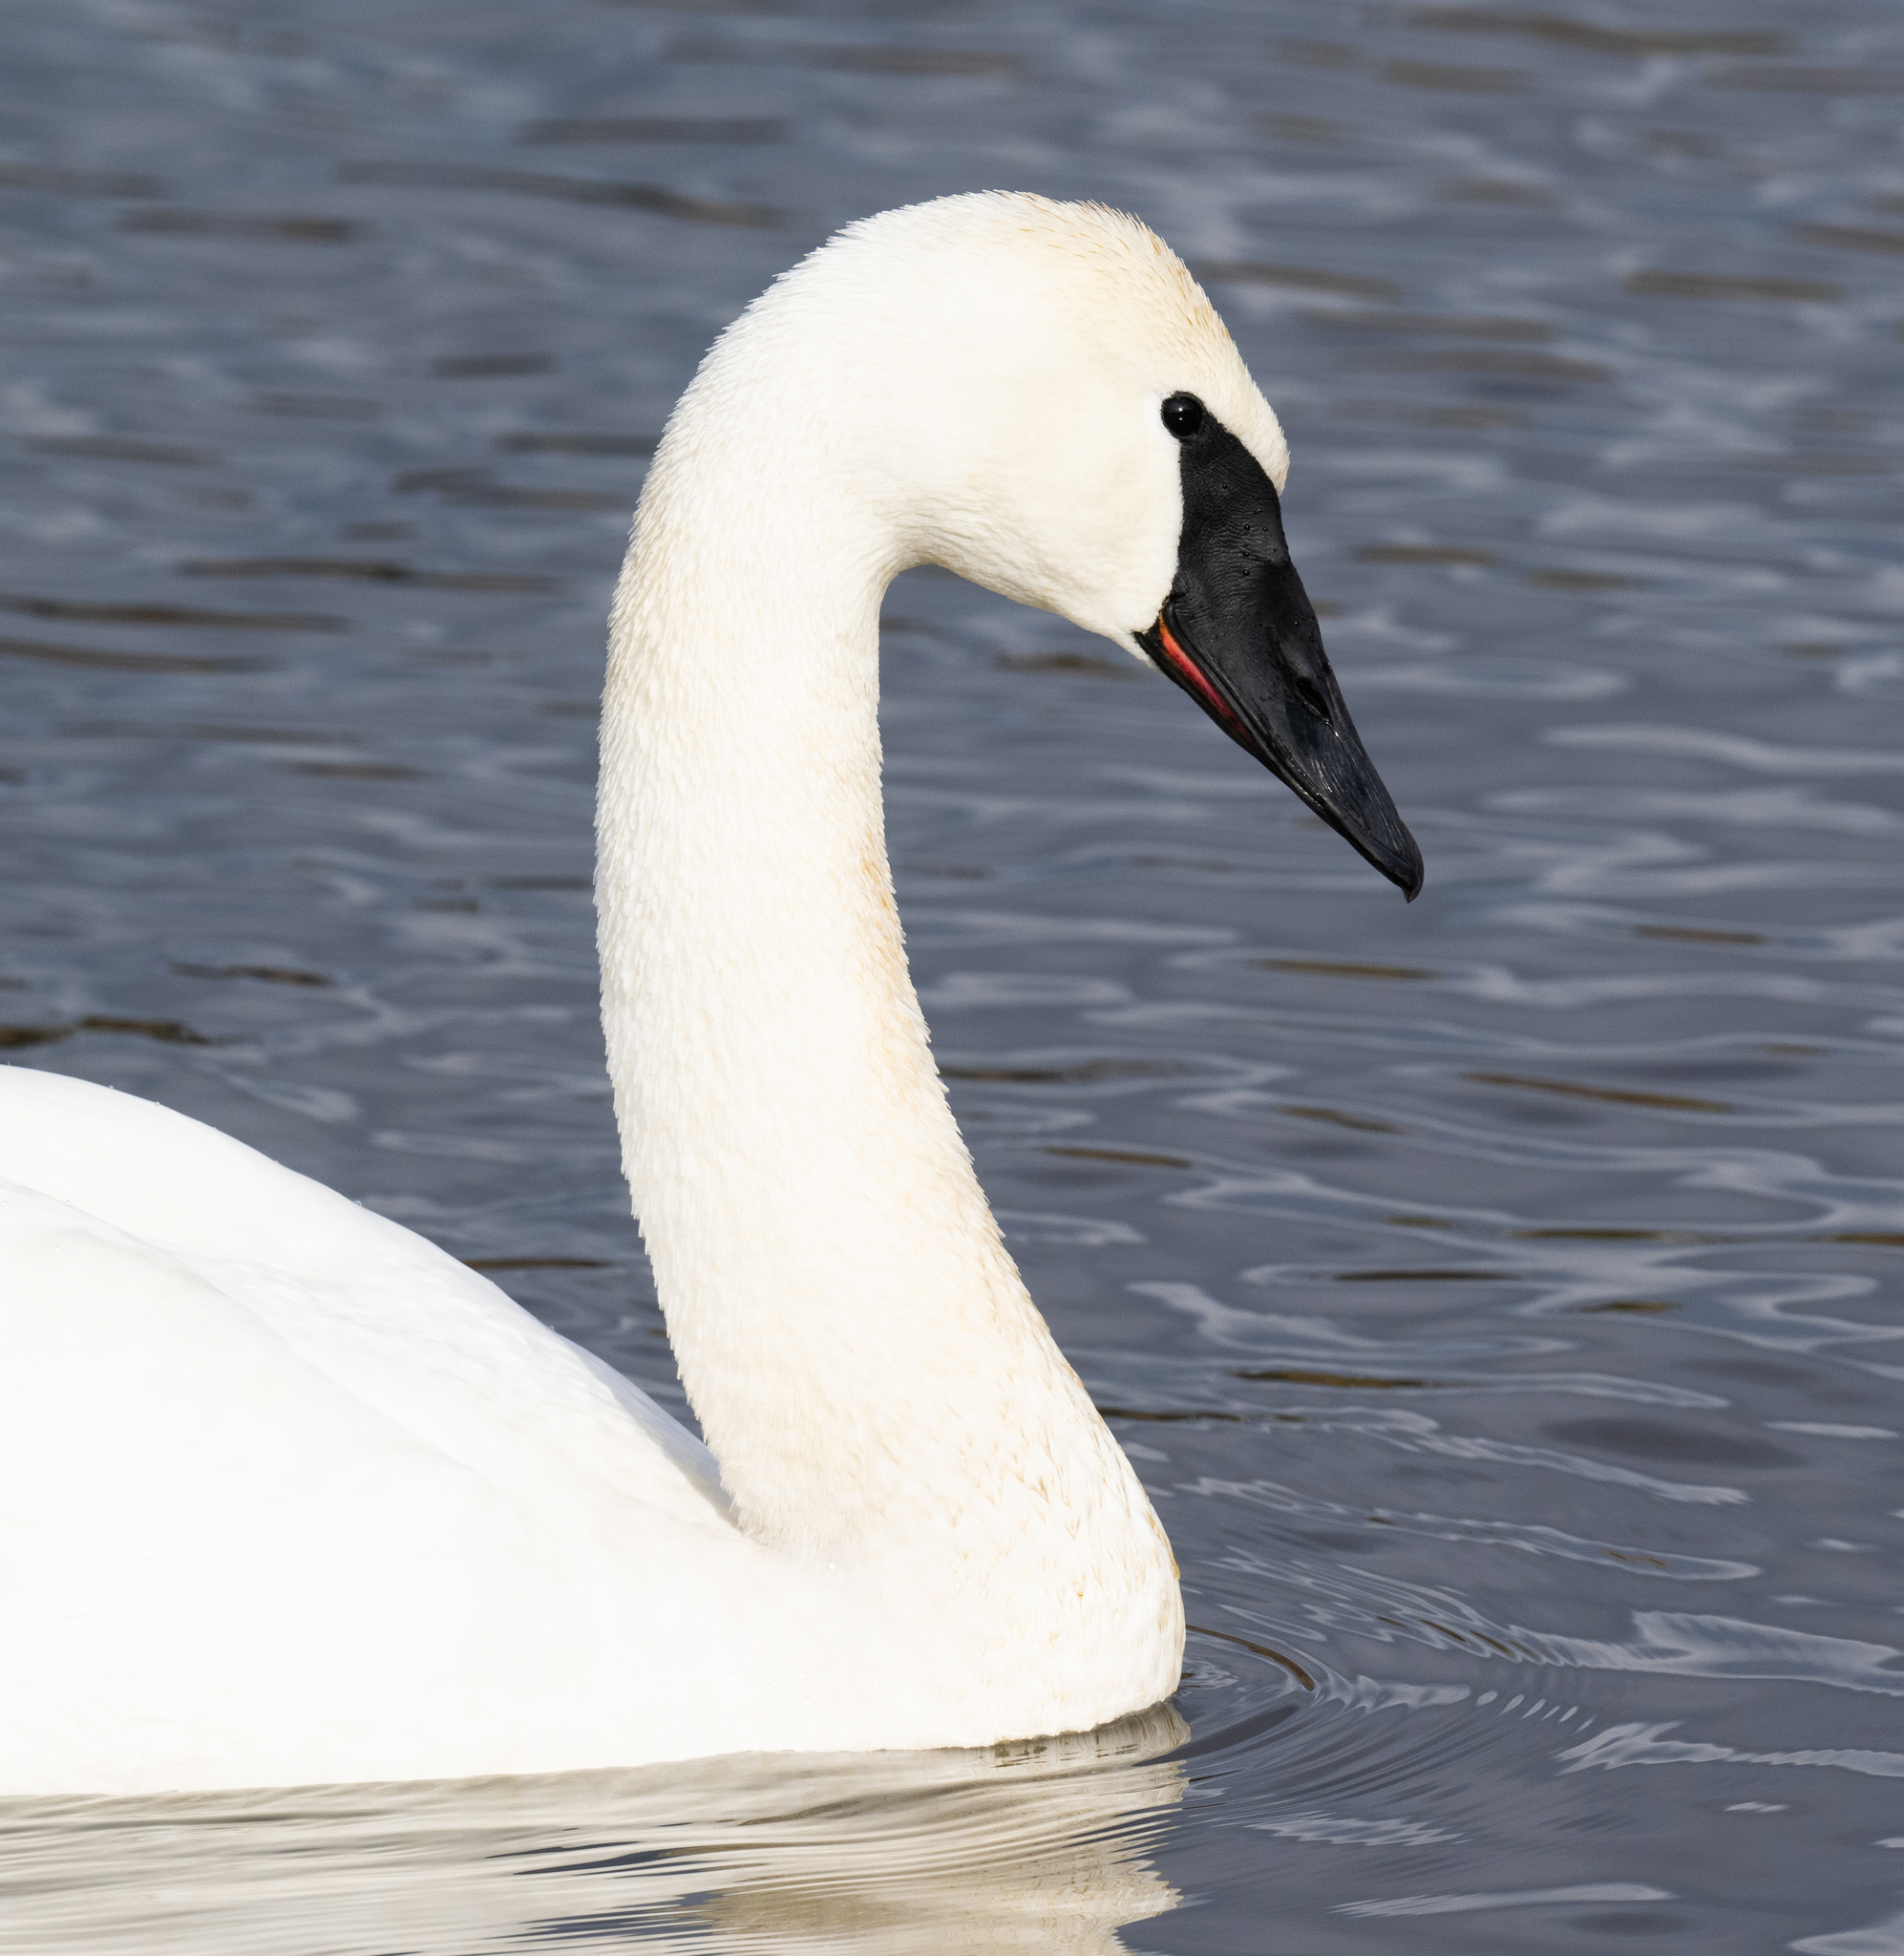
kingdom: Animalia
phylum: Chordata
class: Aves
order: Anseriformes
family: Anatidae
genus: Cygnus
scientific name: Cygnus buccinator
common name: Trumpeter swan
